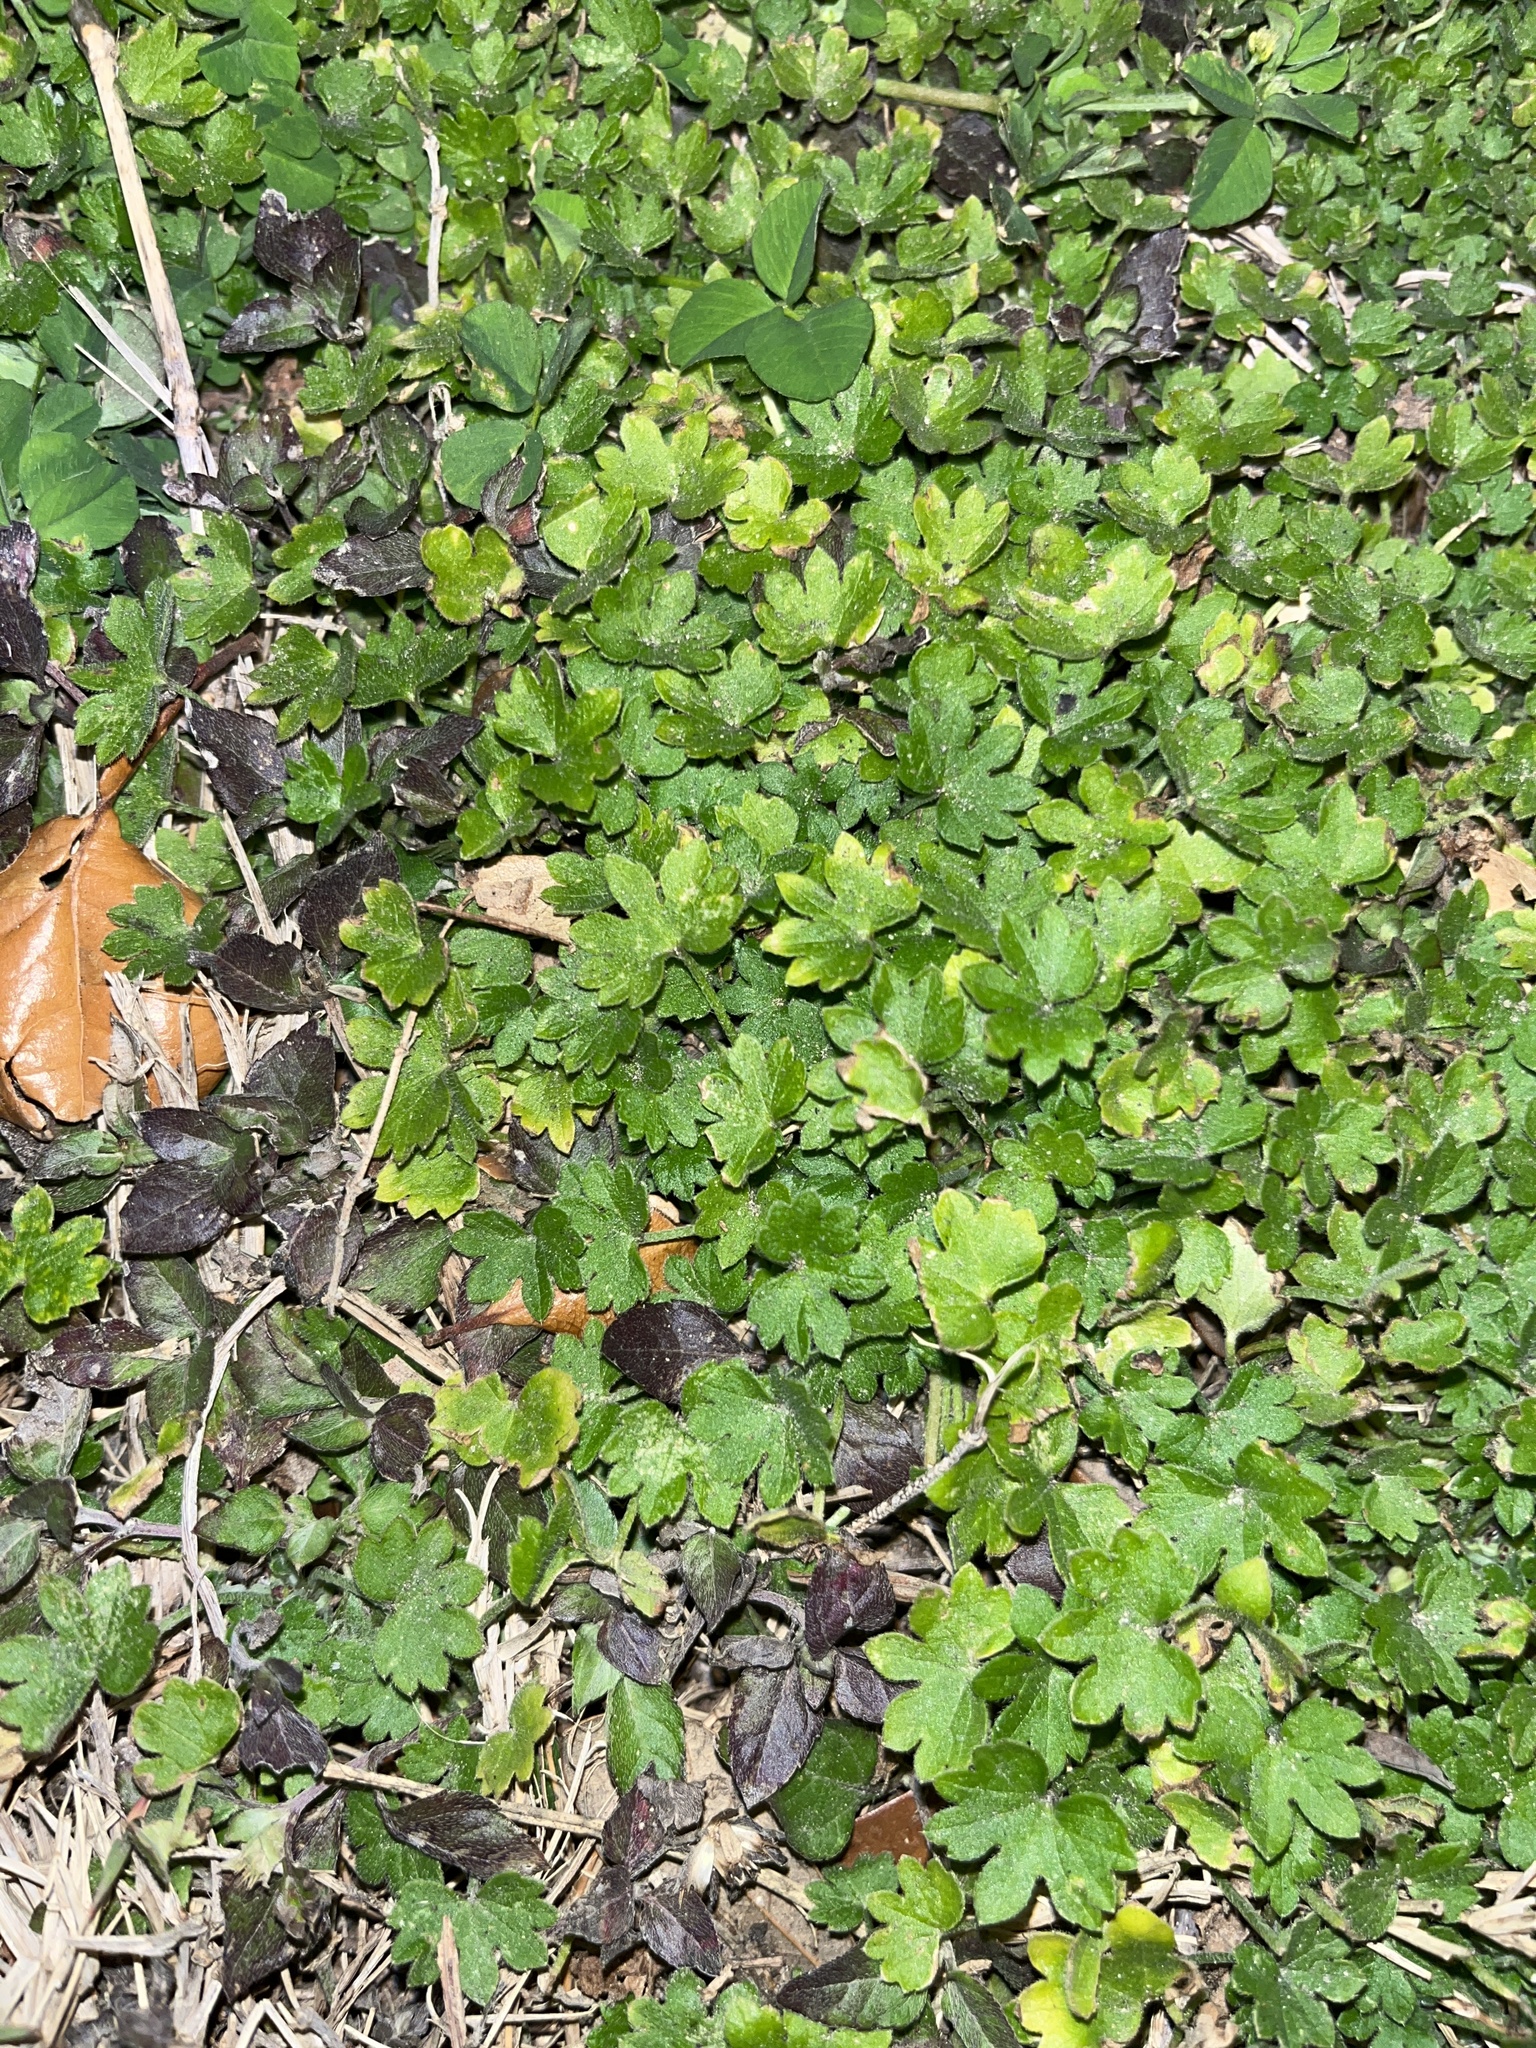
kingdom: Plantae
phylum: Tracheophyta
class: Magnoliopsida
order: Apiales
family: Apiaceae
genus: Bowlesia
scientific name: Bowlesia incana
